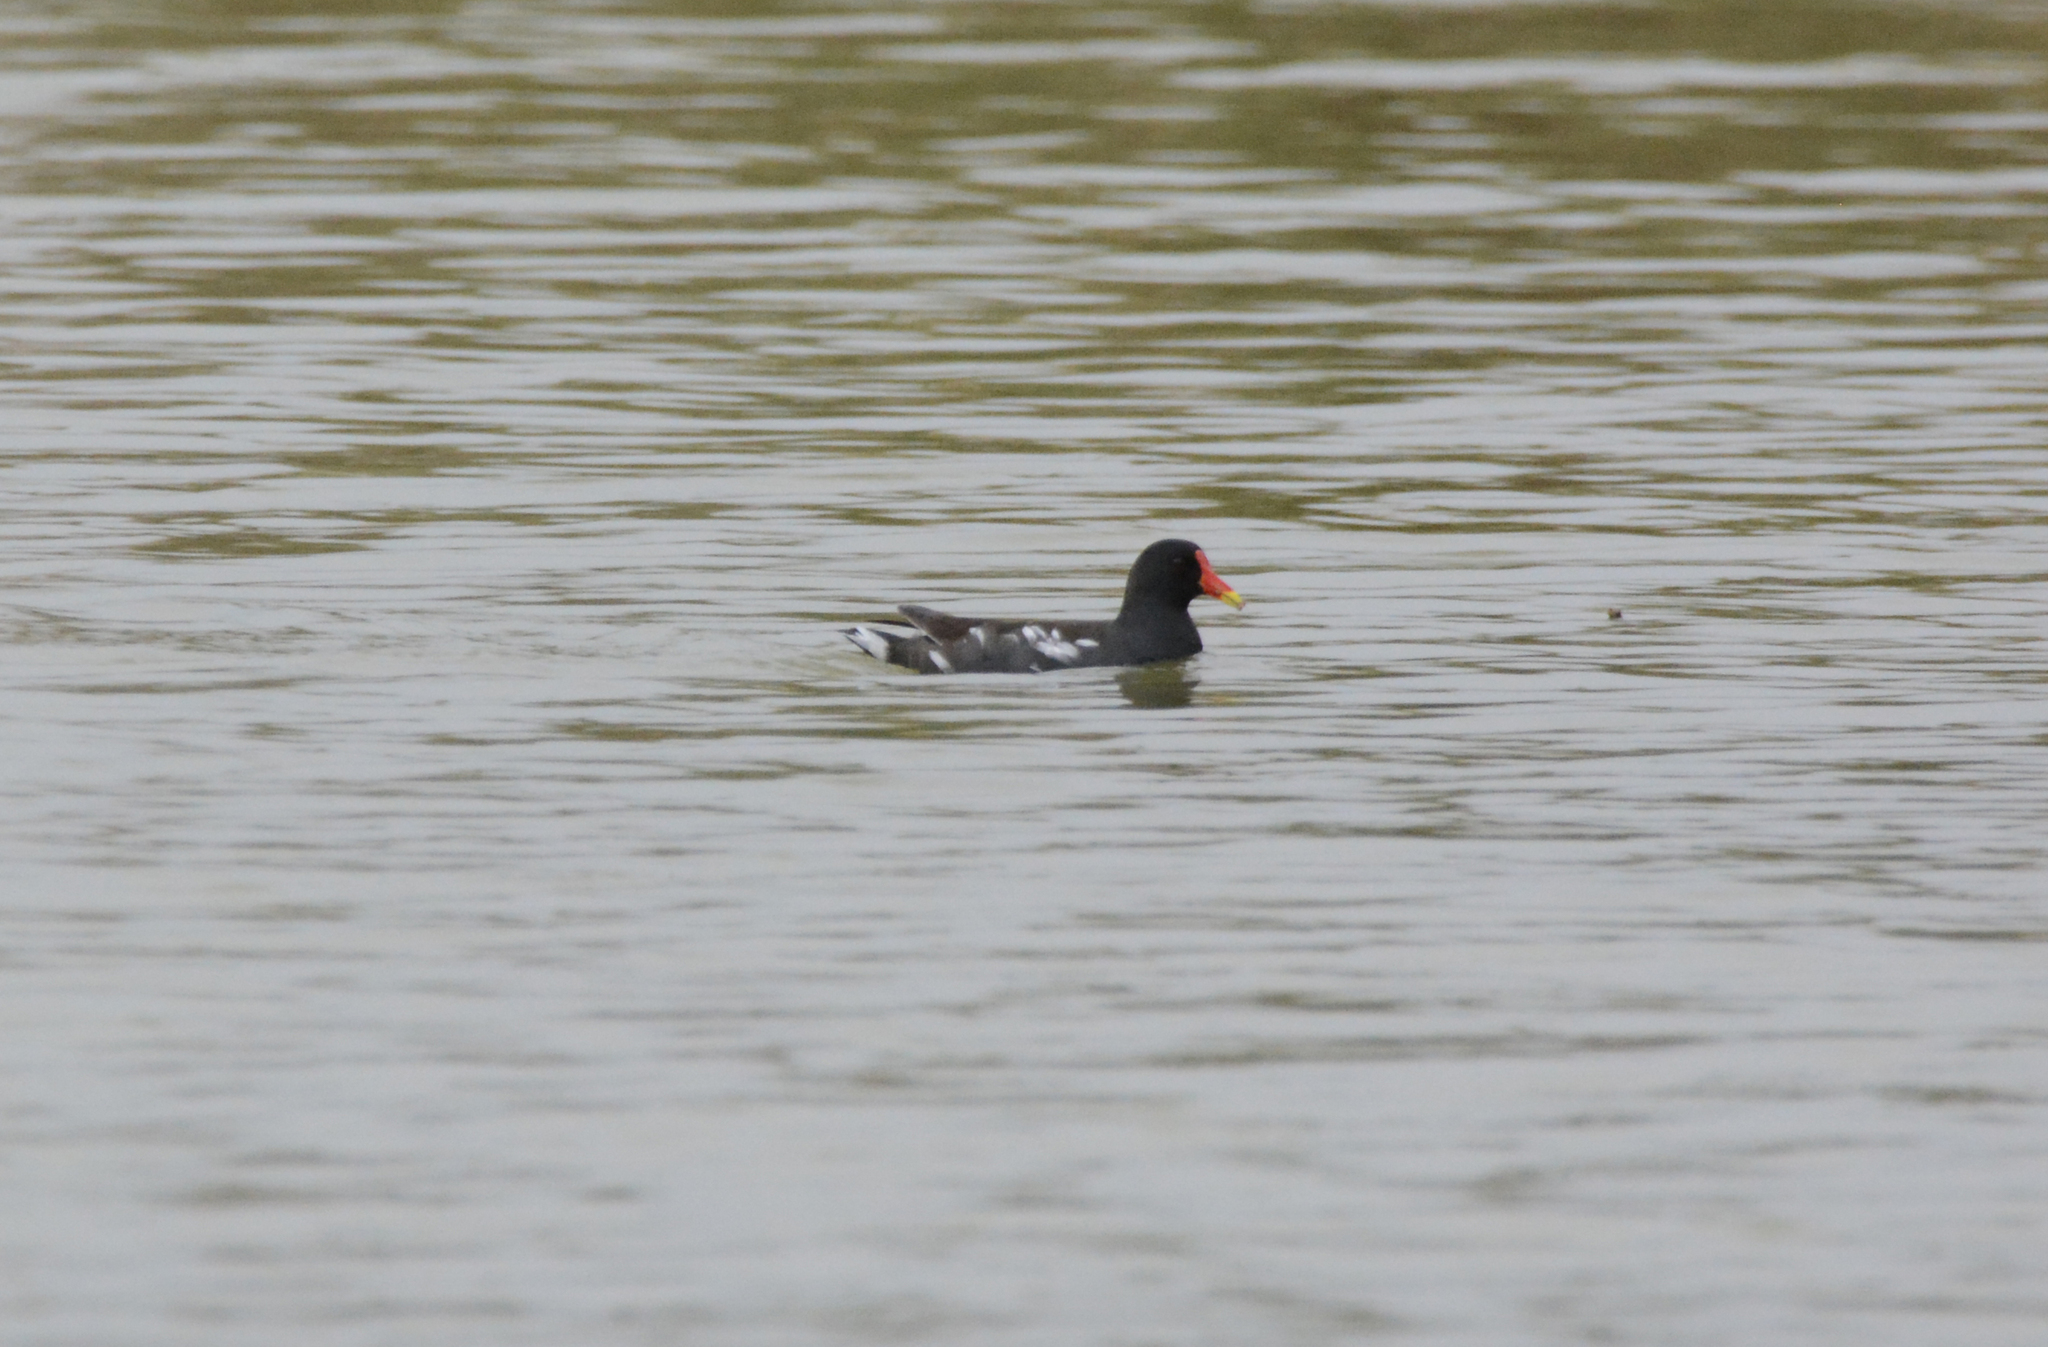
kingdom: Animalia
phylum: Chordata
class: Aves
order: Gruiformes
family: Rallidae
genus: Gallinula
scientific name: Gallinula chloropus
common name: Common moorhen
